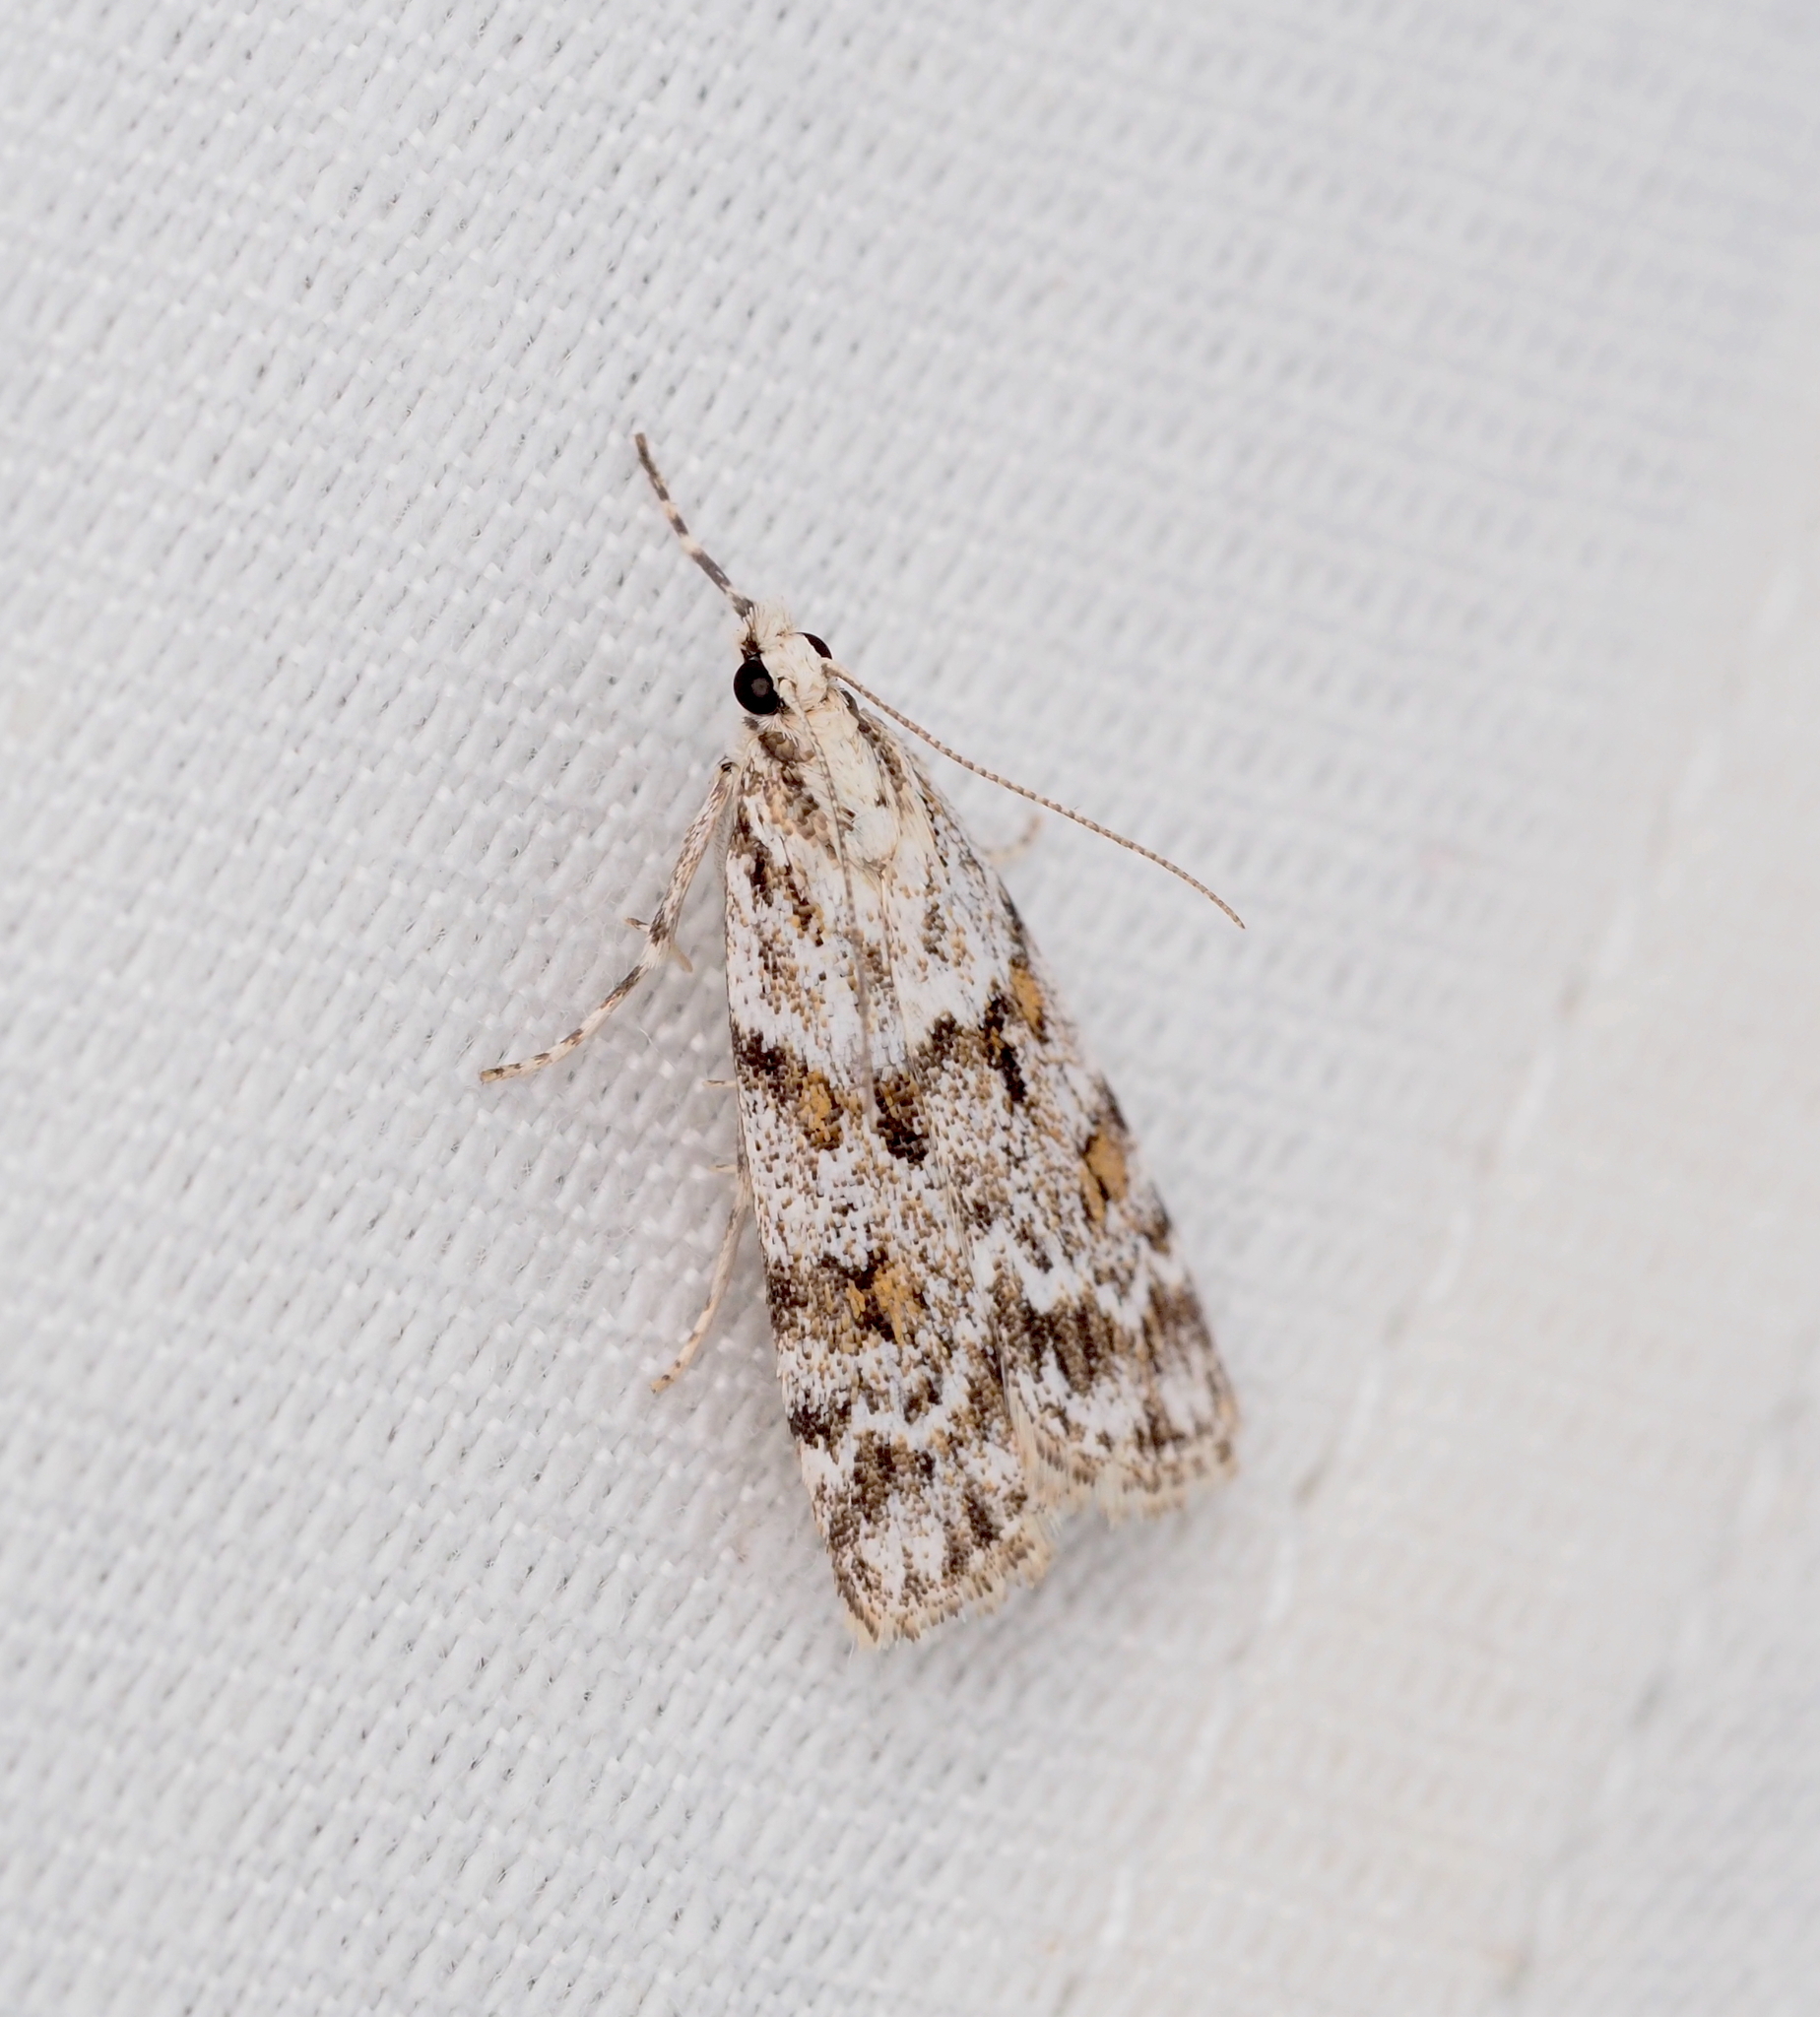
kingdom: Animalia
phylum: Arthropoda
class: Insecta
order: Lepidoptera
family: Crambidae
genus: Scoparia
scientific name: Scoparia pyralella
